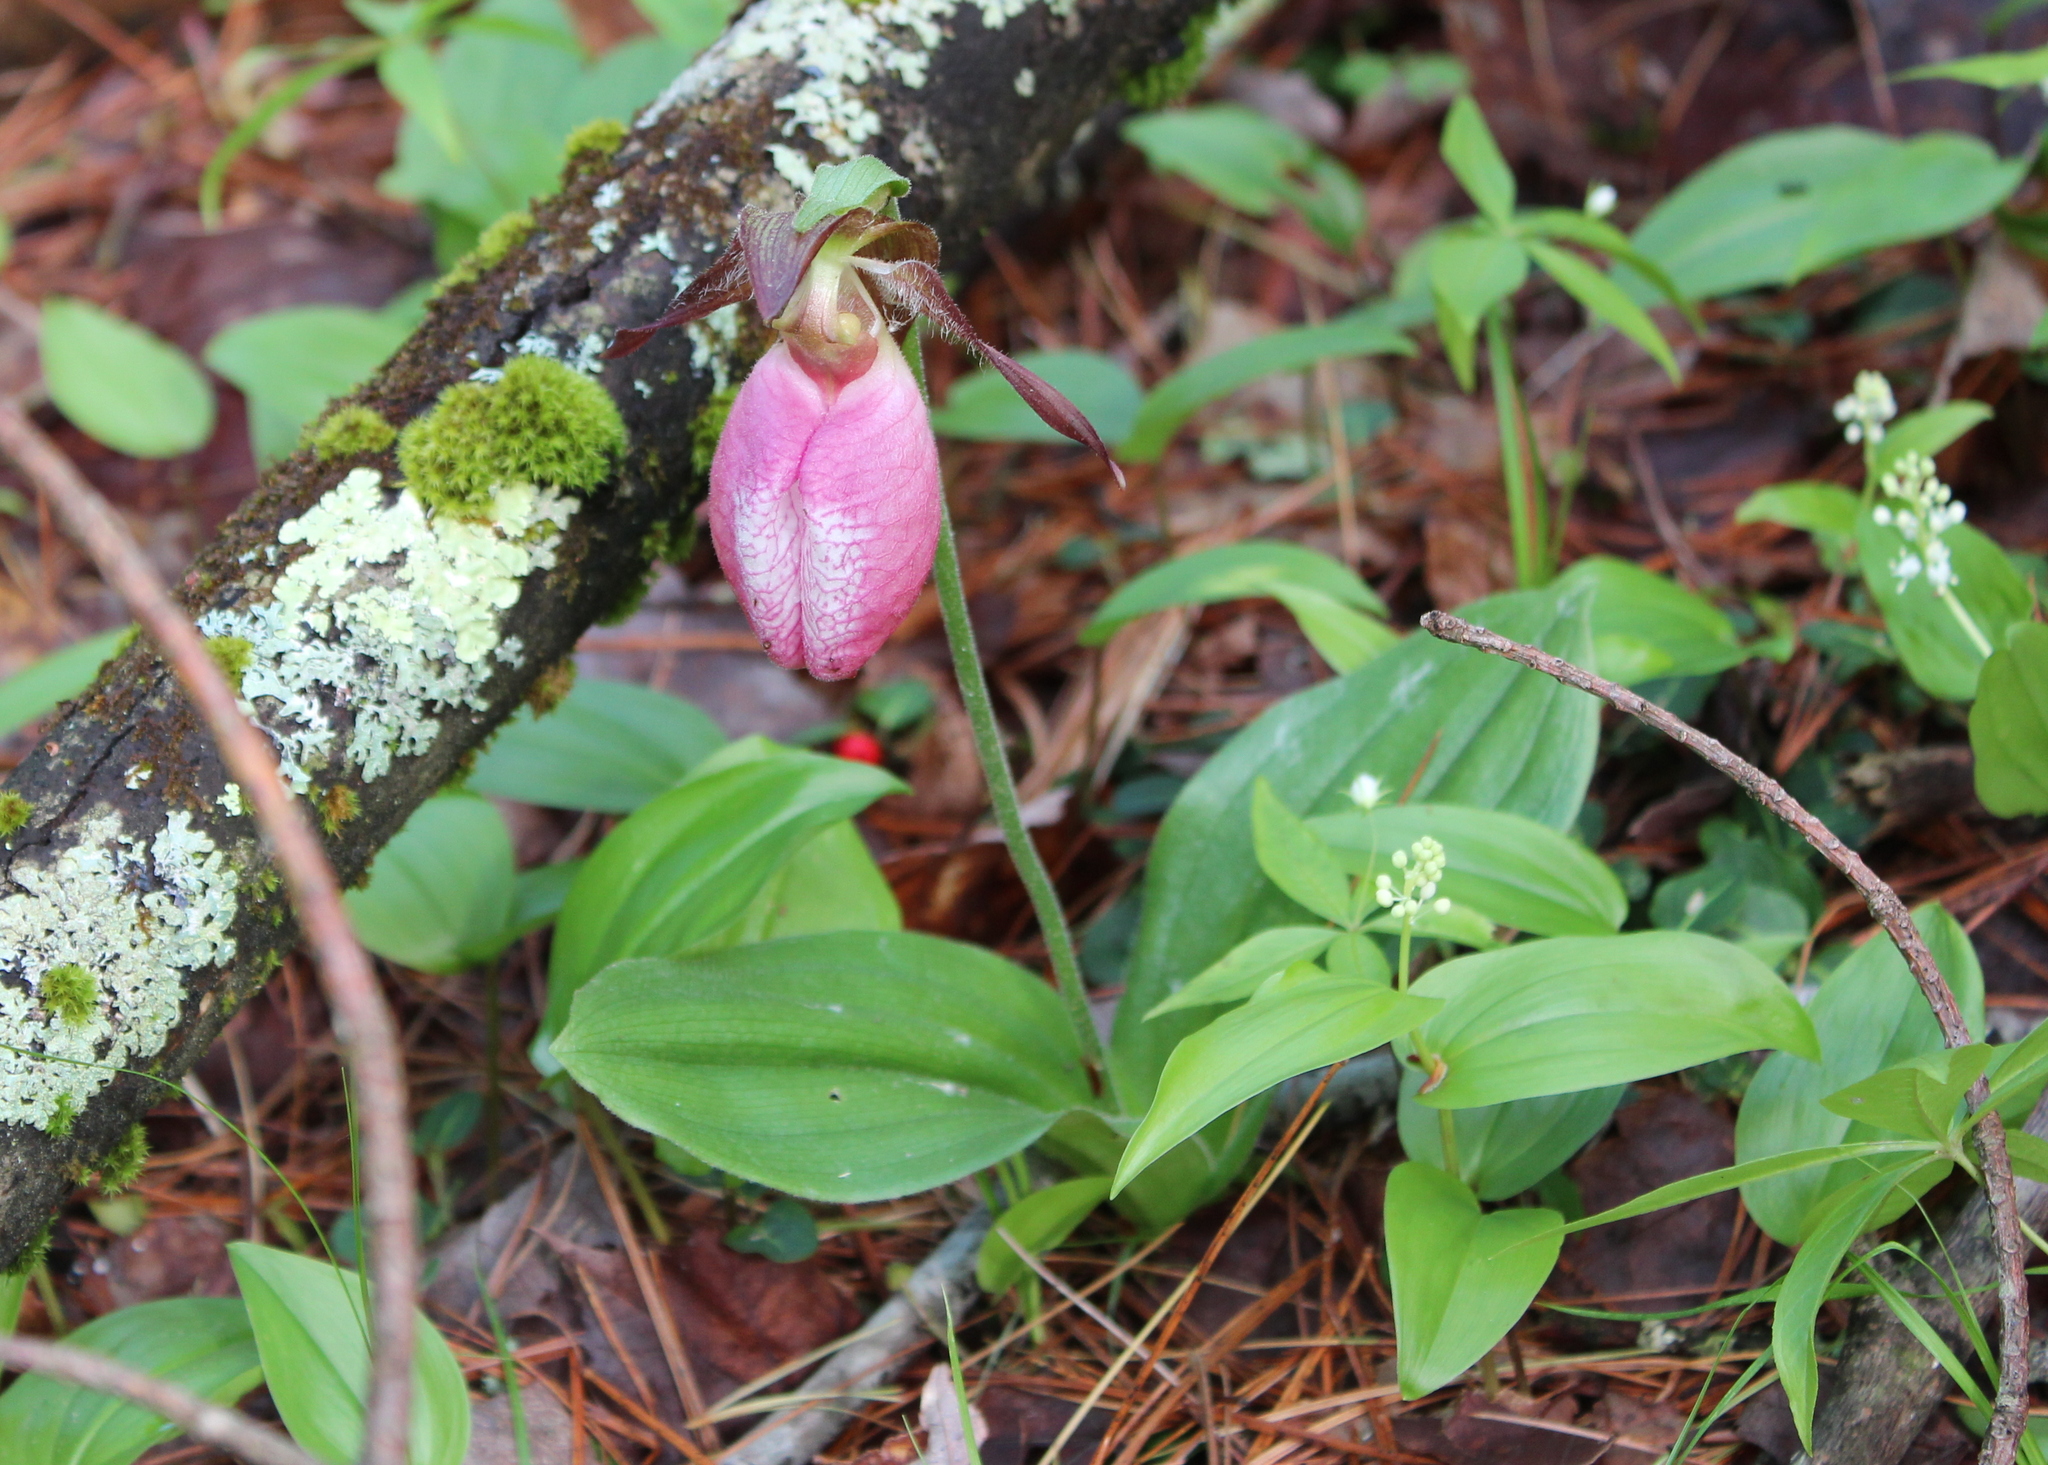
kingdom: Plantae
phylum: Tracheophyta
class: Liliopsida
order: Asparagales
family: Orchidaceae
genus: Cypripedium
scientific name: Cypripedium acaule
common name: Pink lady's-slipper
